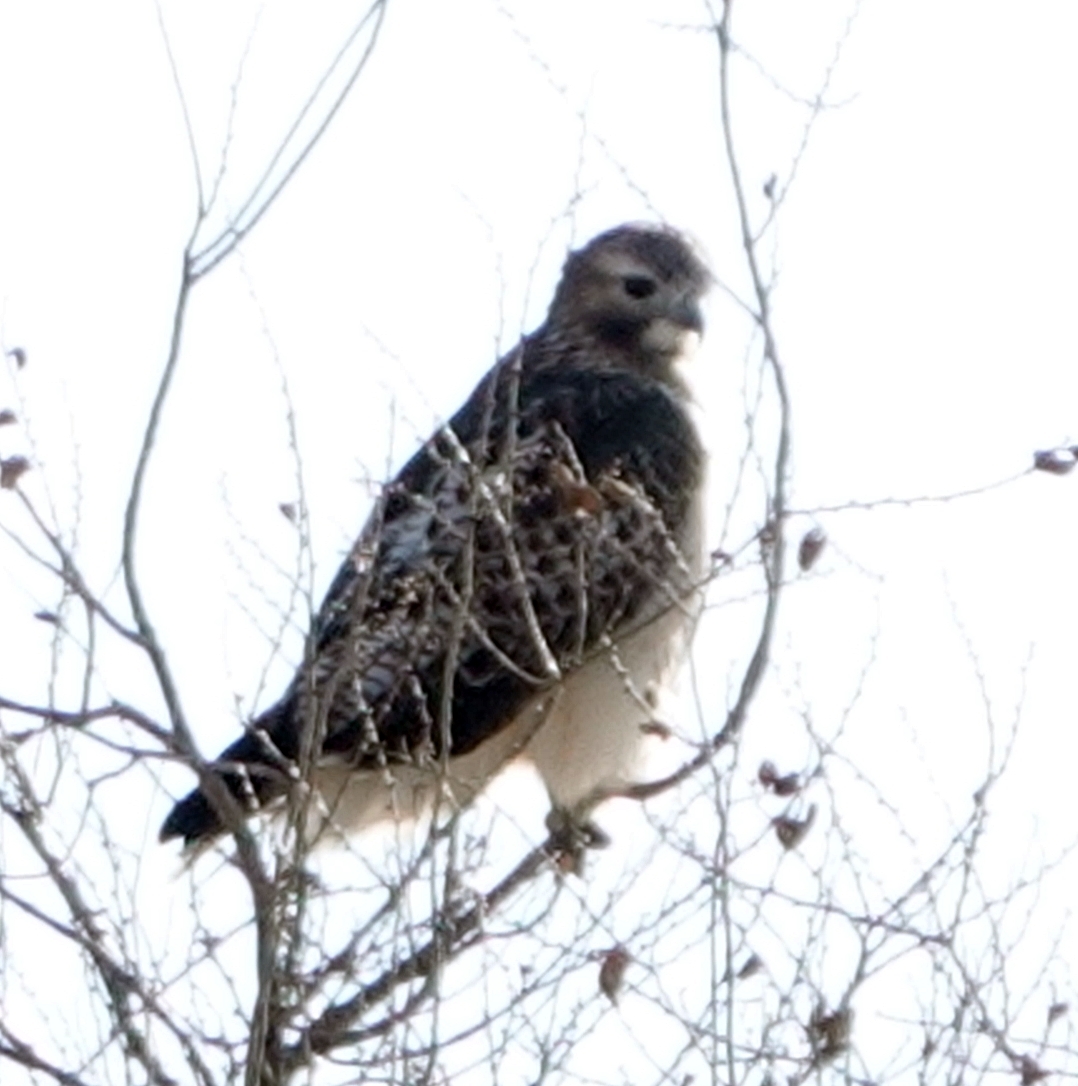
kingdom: Animalia
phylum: Chordata
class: Aves
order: Accipitriformes
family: Accipitridae
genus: Buteo
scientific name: Buteo jamaicensis
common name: Red-tailed hawk
